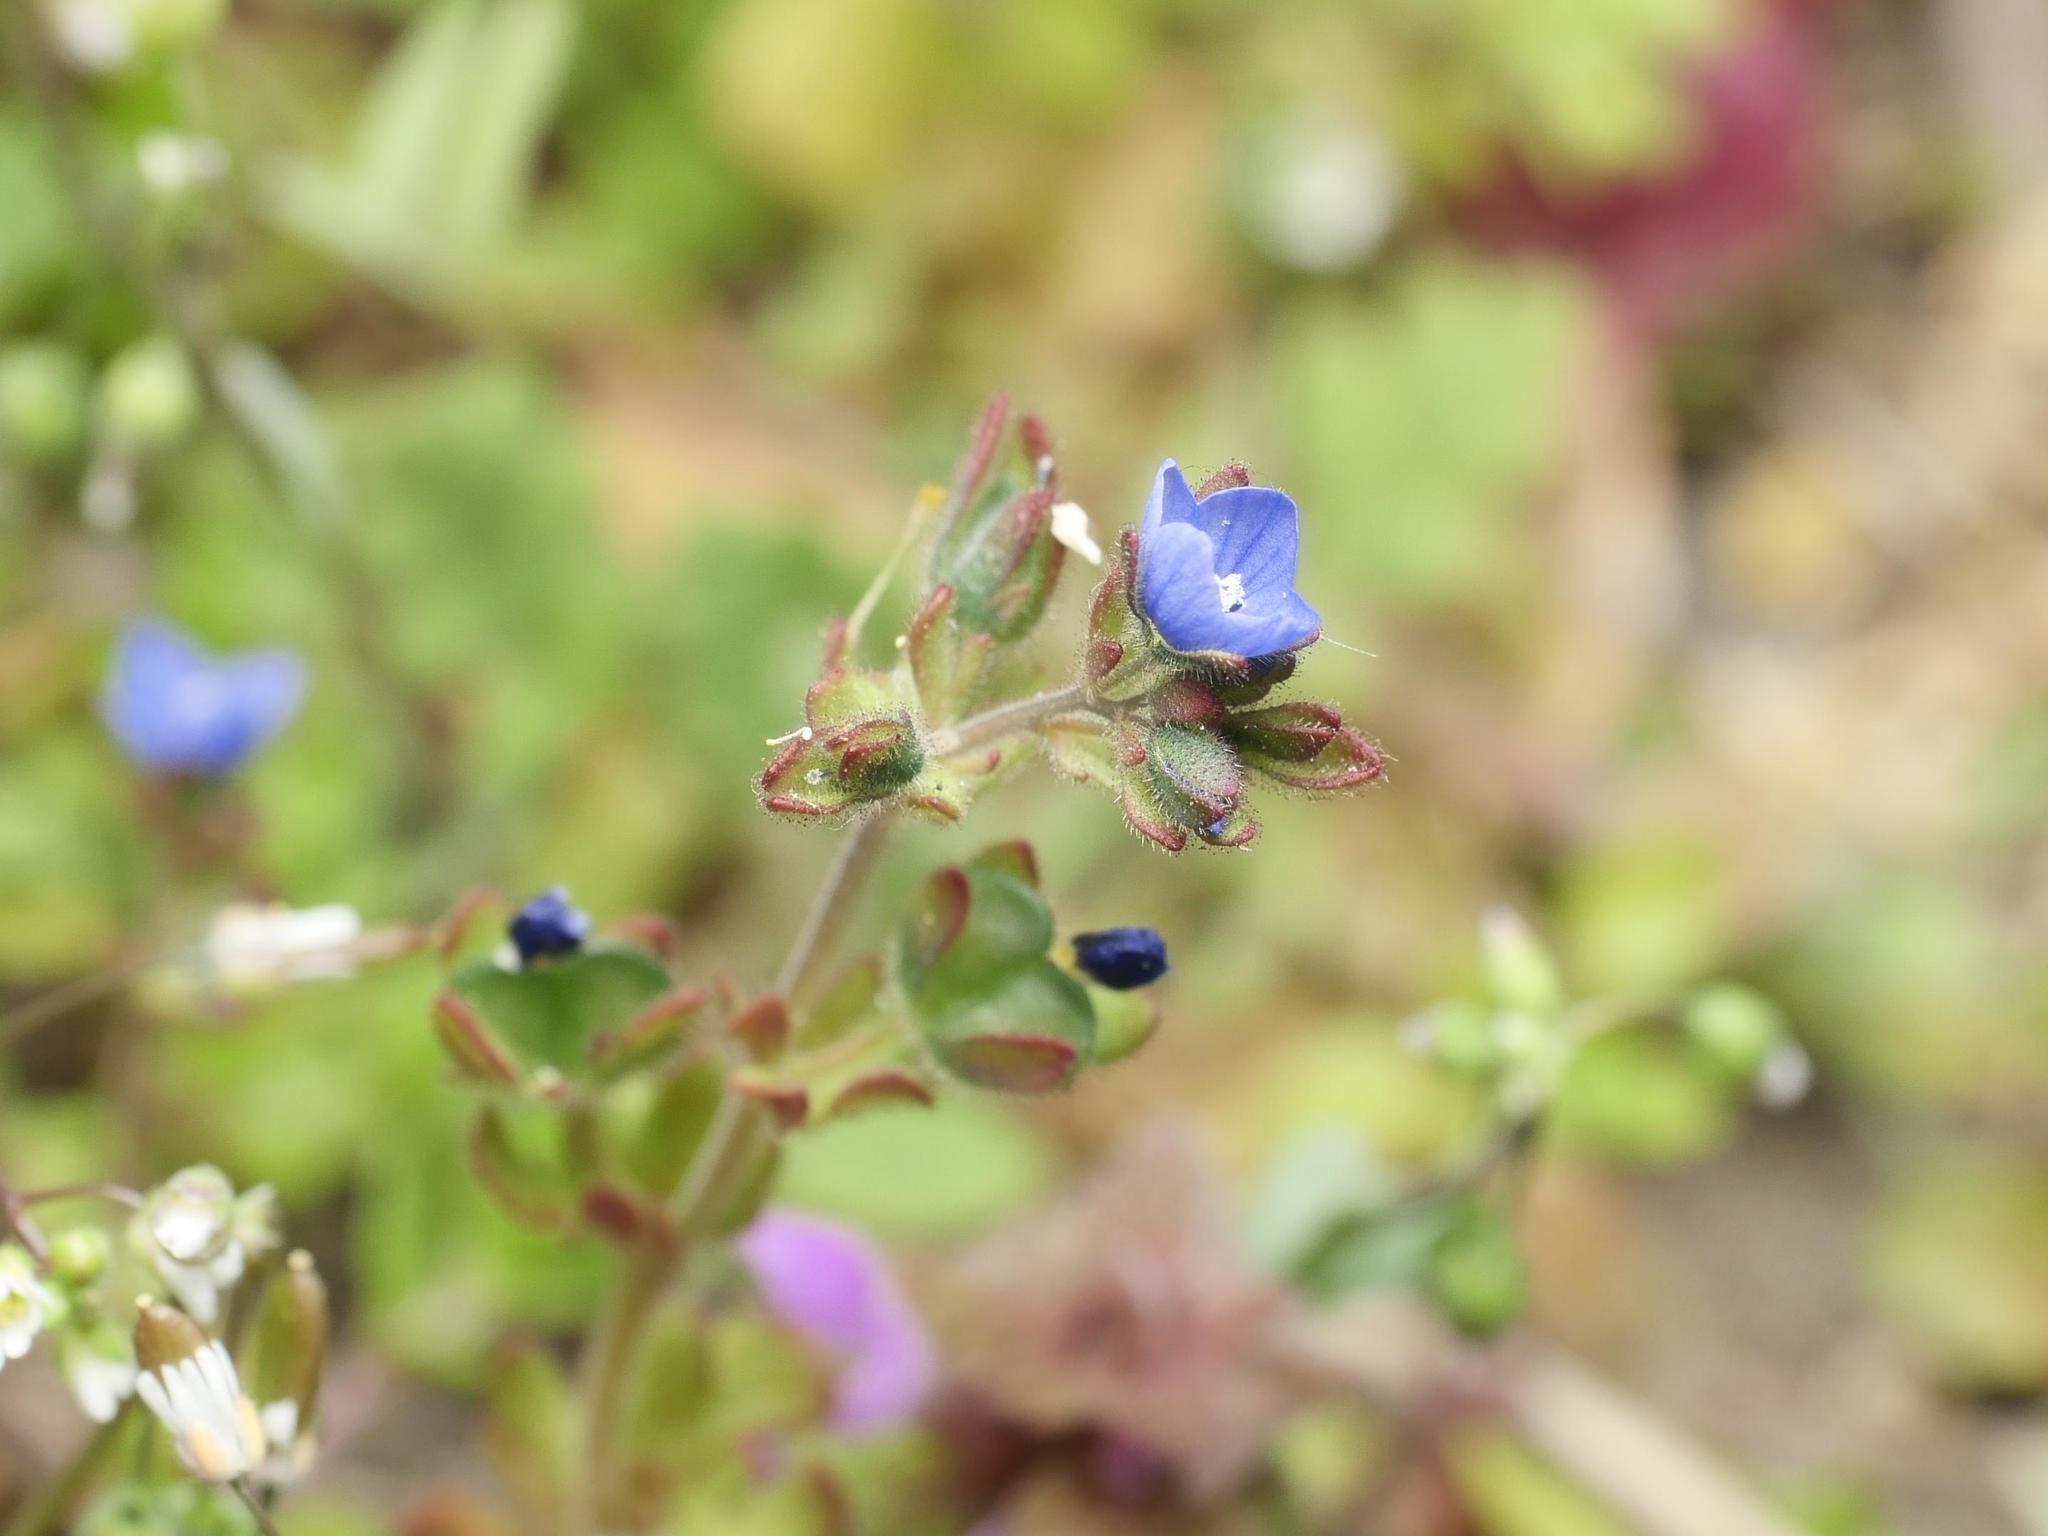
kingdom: Plantae
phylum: Tracheophyta
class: Magnoliopsida
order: Lamiales
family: Plantaginaceae
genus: Veronica
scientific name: Veronica triphyllos
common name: Fingered speedwell
